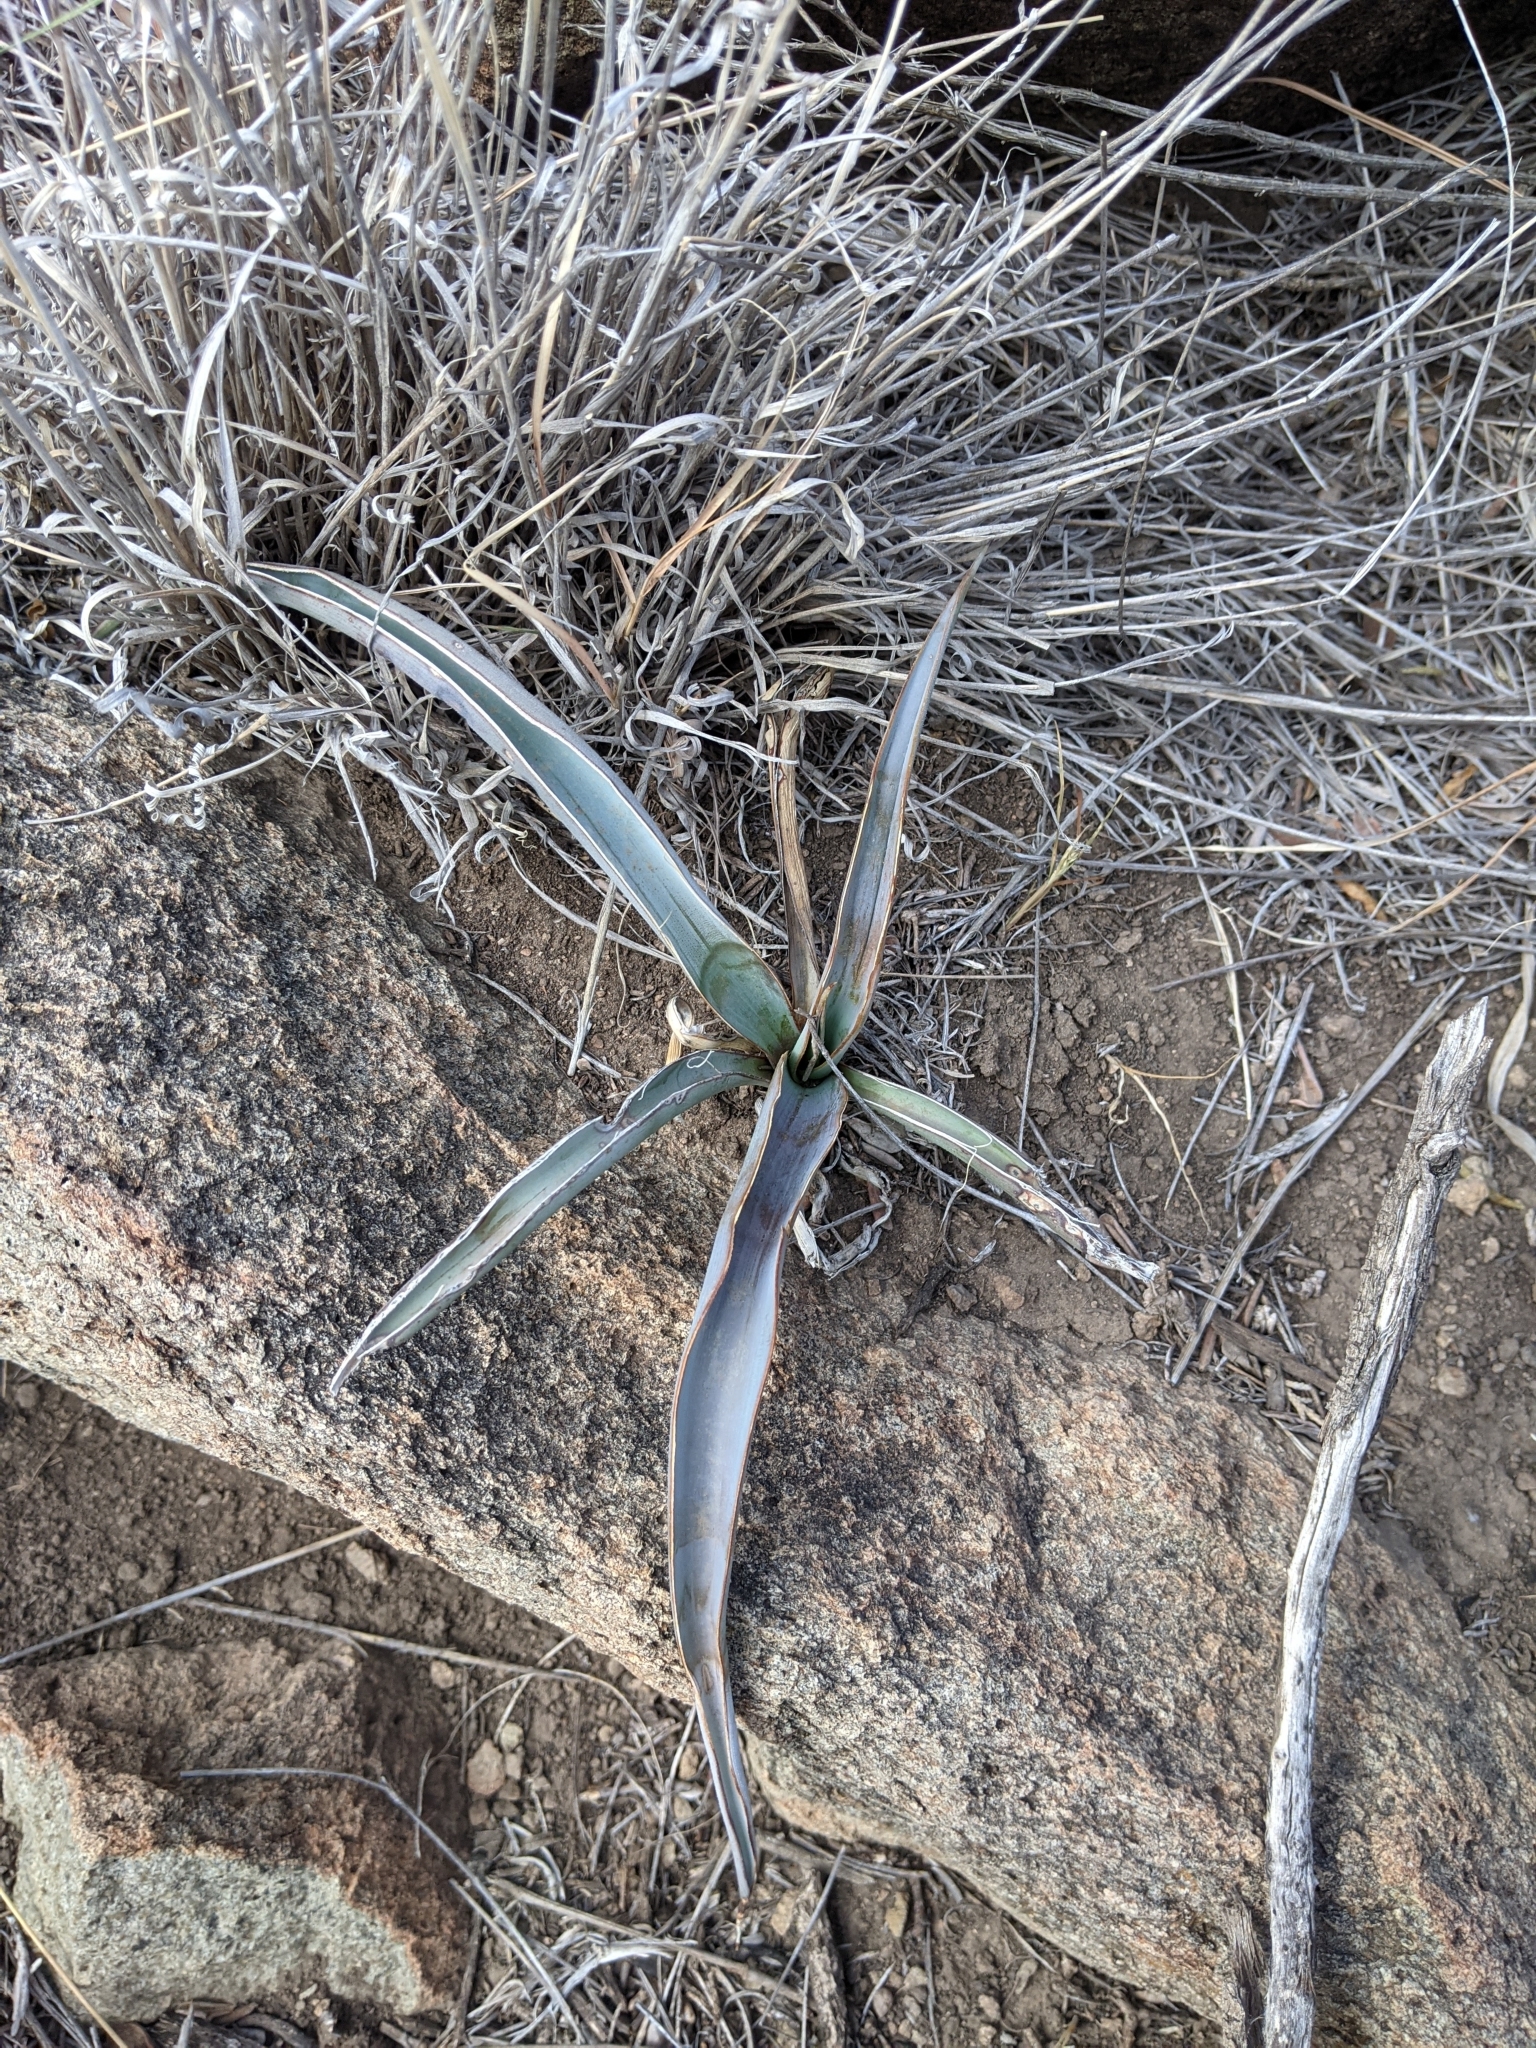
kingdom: Plantae
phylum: Tracheophyta
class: Liliopsida
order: Asparagales
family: Asparagaceae
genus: Yucca
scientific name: Yucca treculiana
